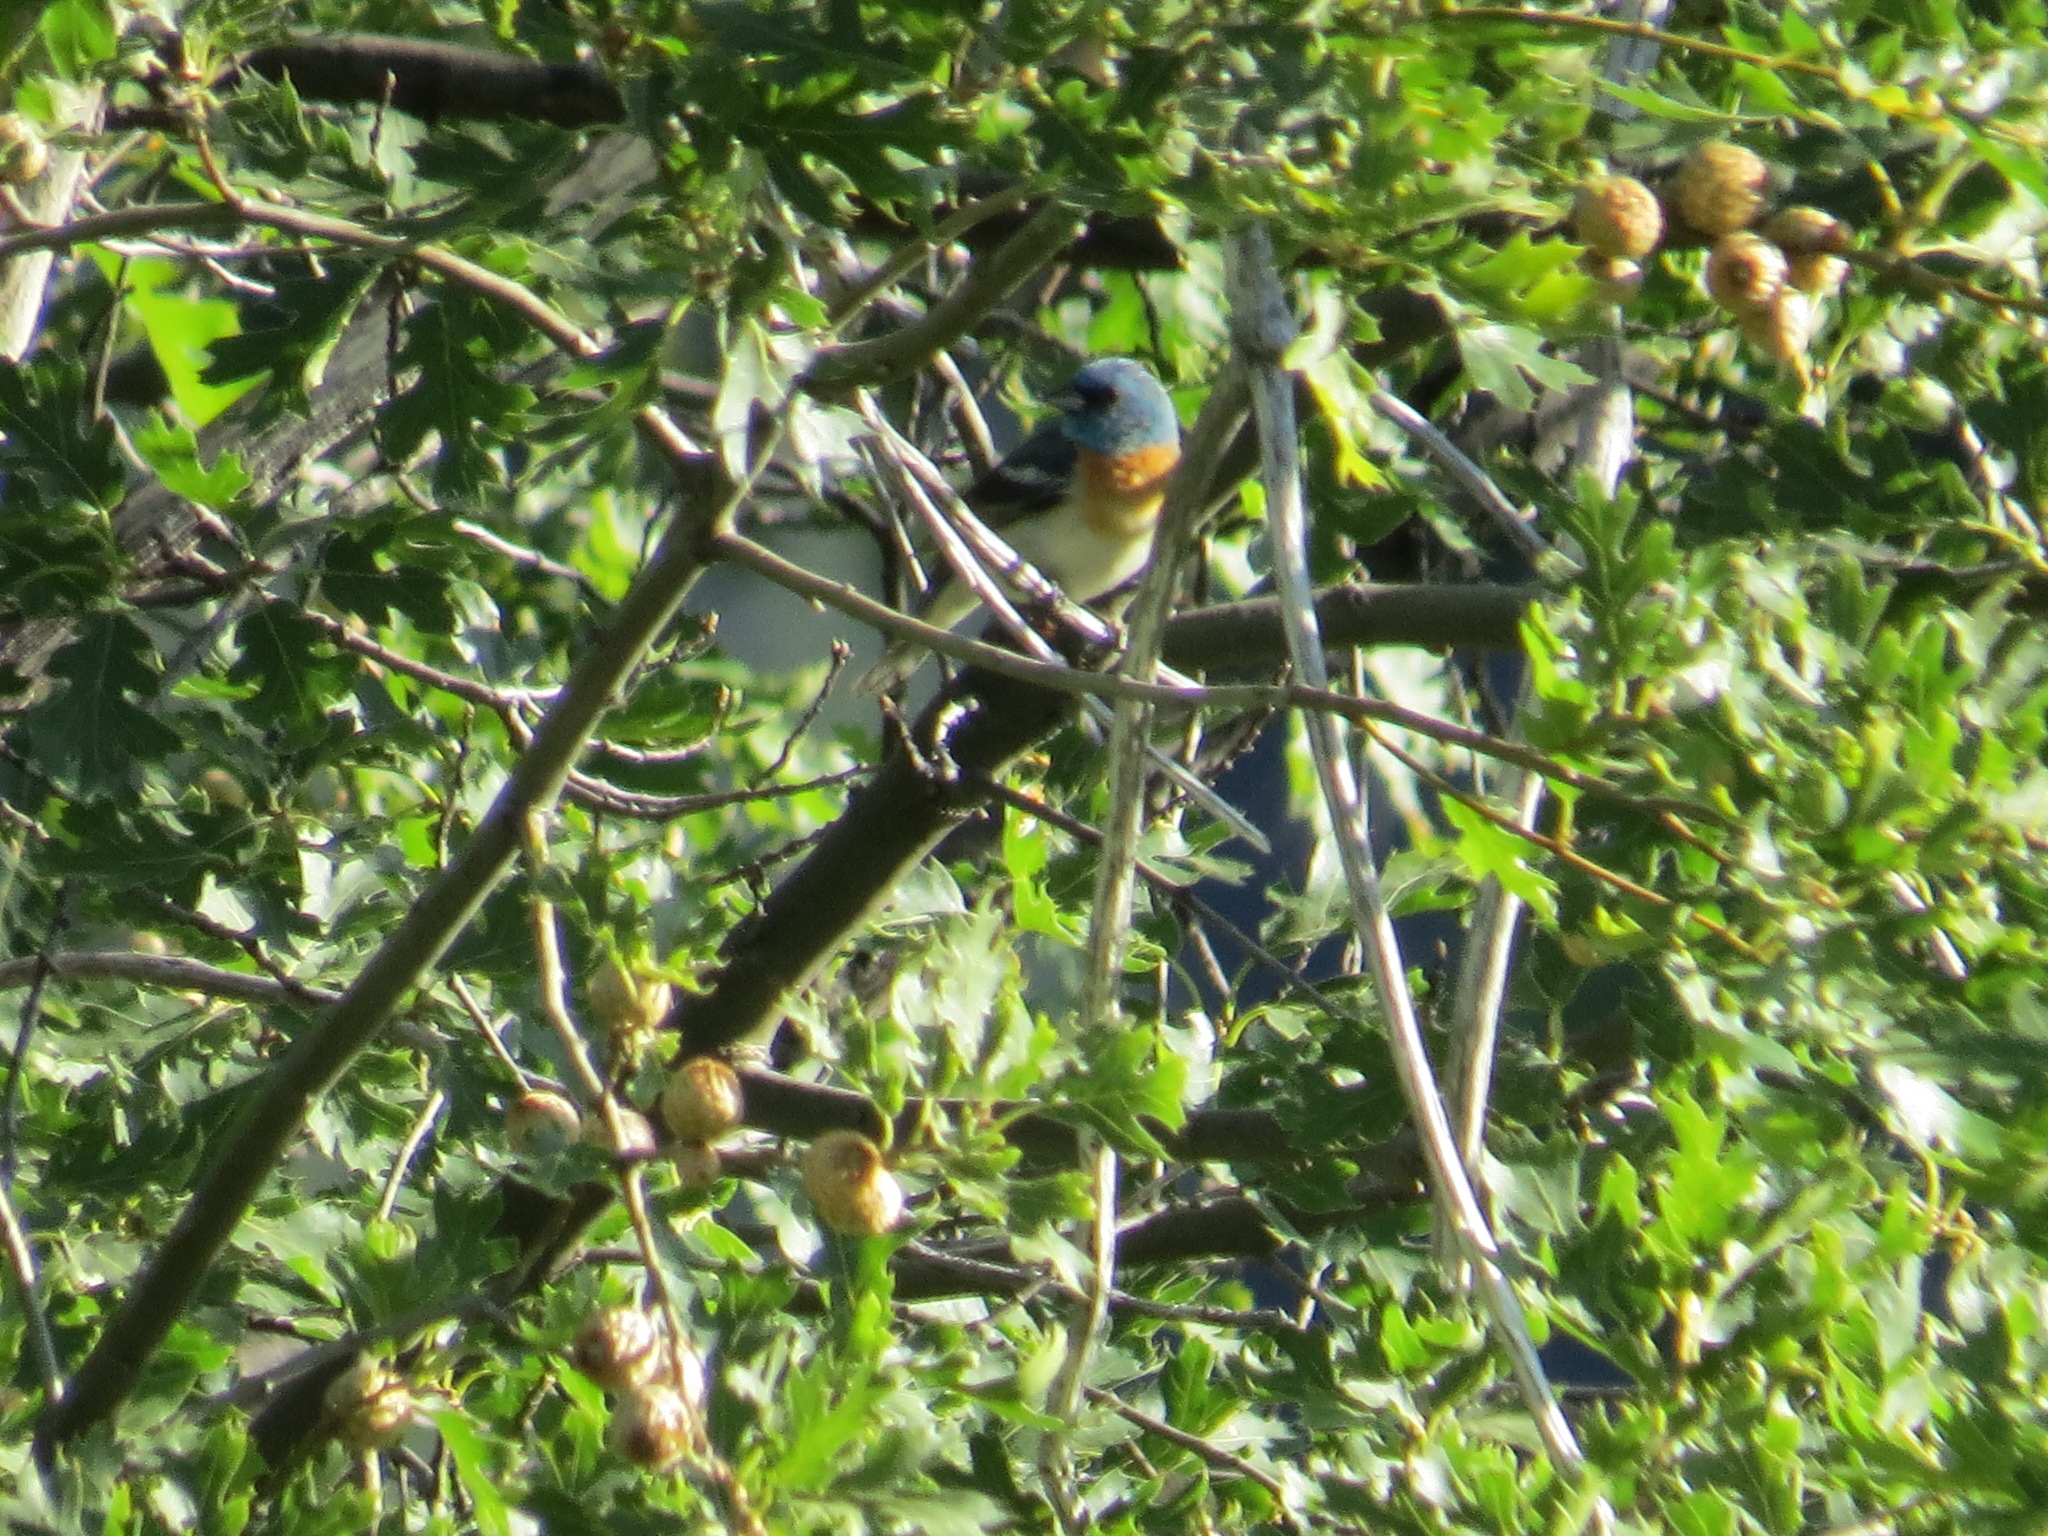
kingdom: Animalia
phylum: Chordata
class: Aves
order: Passeriformes
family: Cardinalidae
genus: Passerina
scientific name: Passerina amoena
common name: Lazuli bunting
